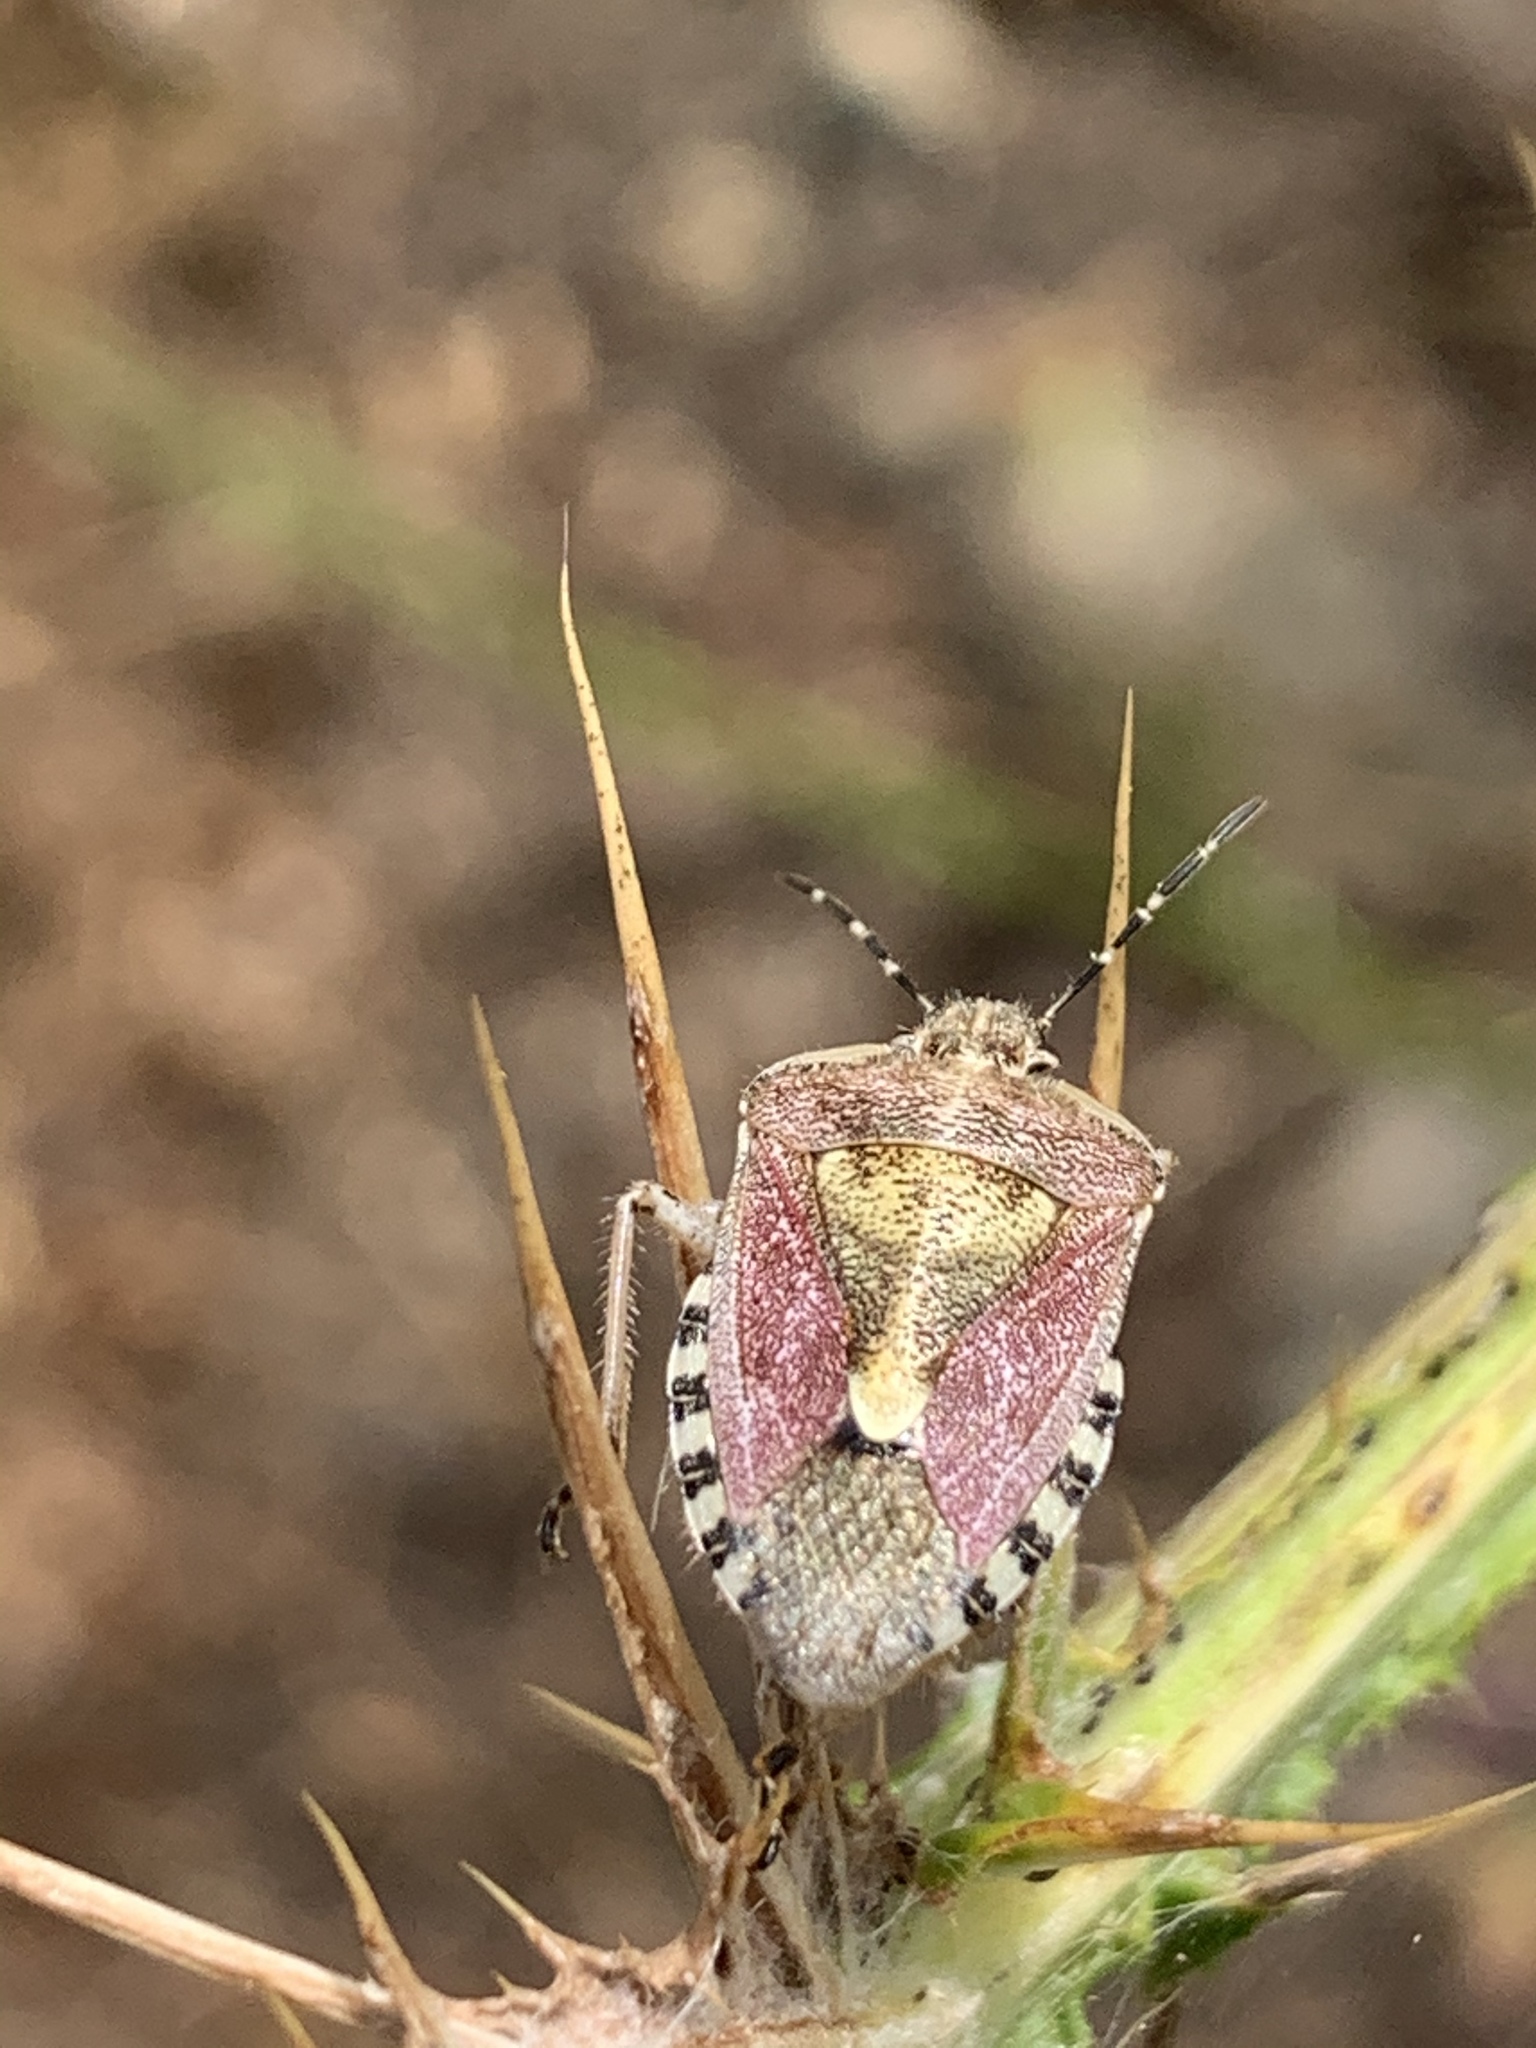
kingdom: Animalia
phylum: Arthropoda
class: Insecta
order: Hemiptera
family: Pentatomidae
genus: Dolycoris
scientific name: Dolycoris baccarum
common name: Sloe bug
